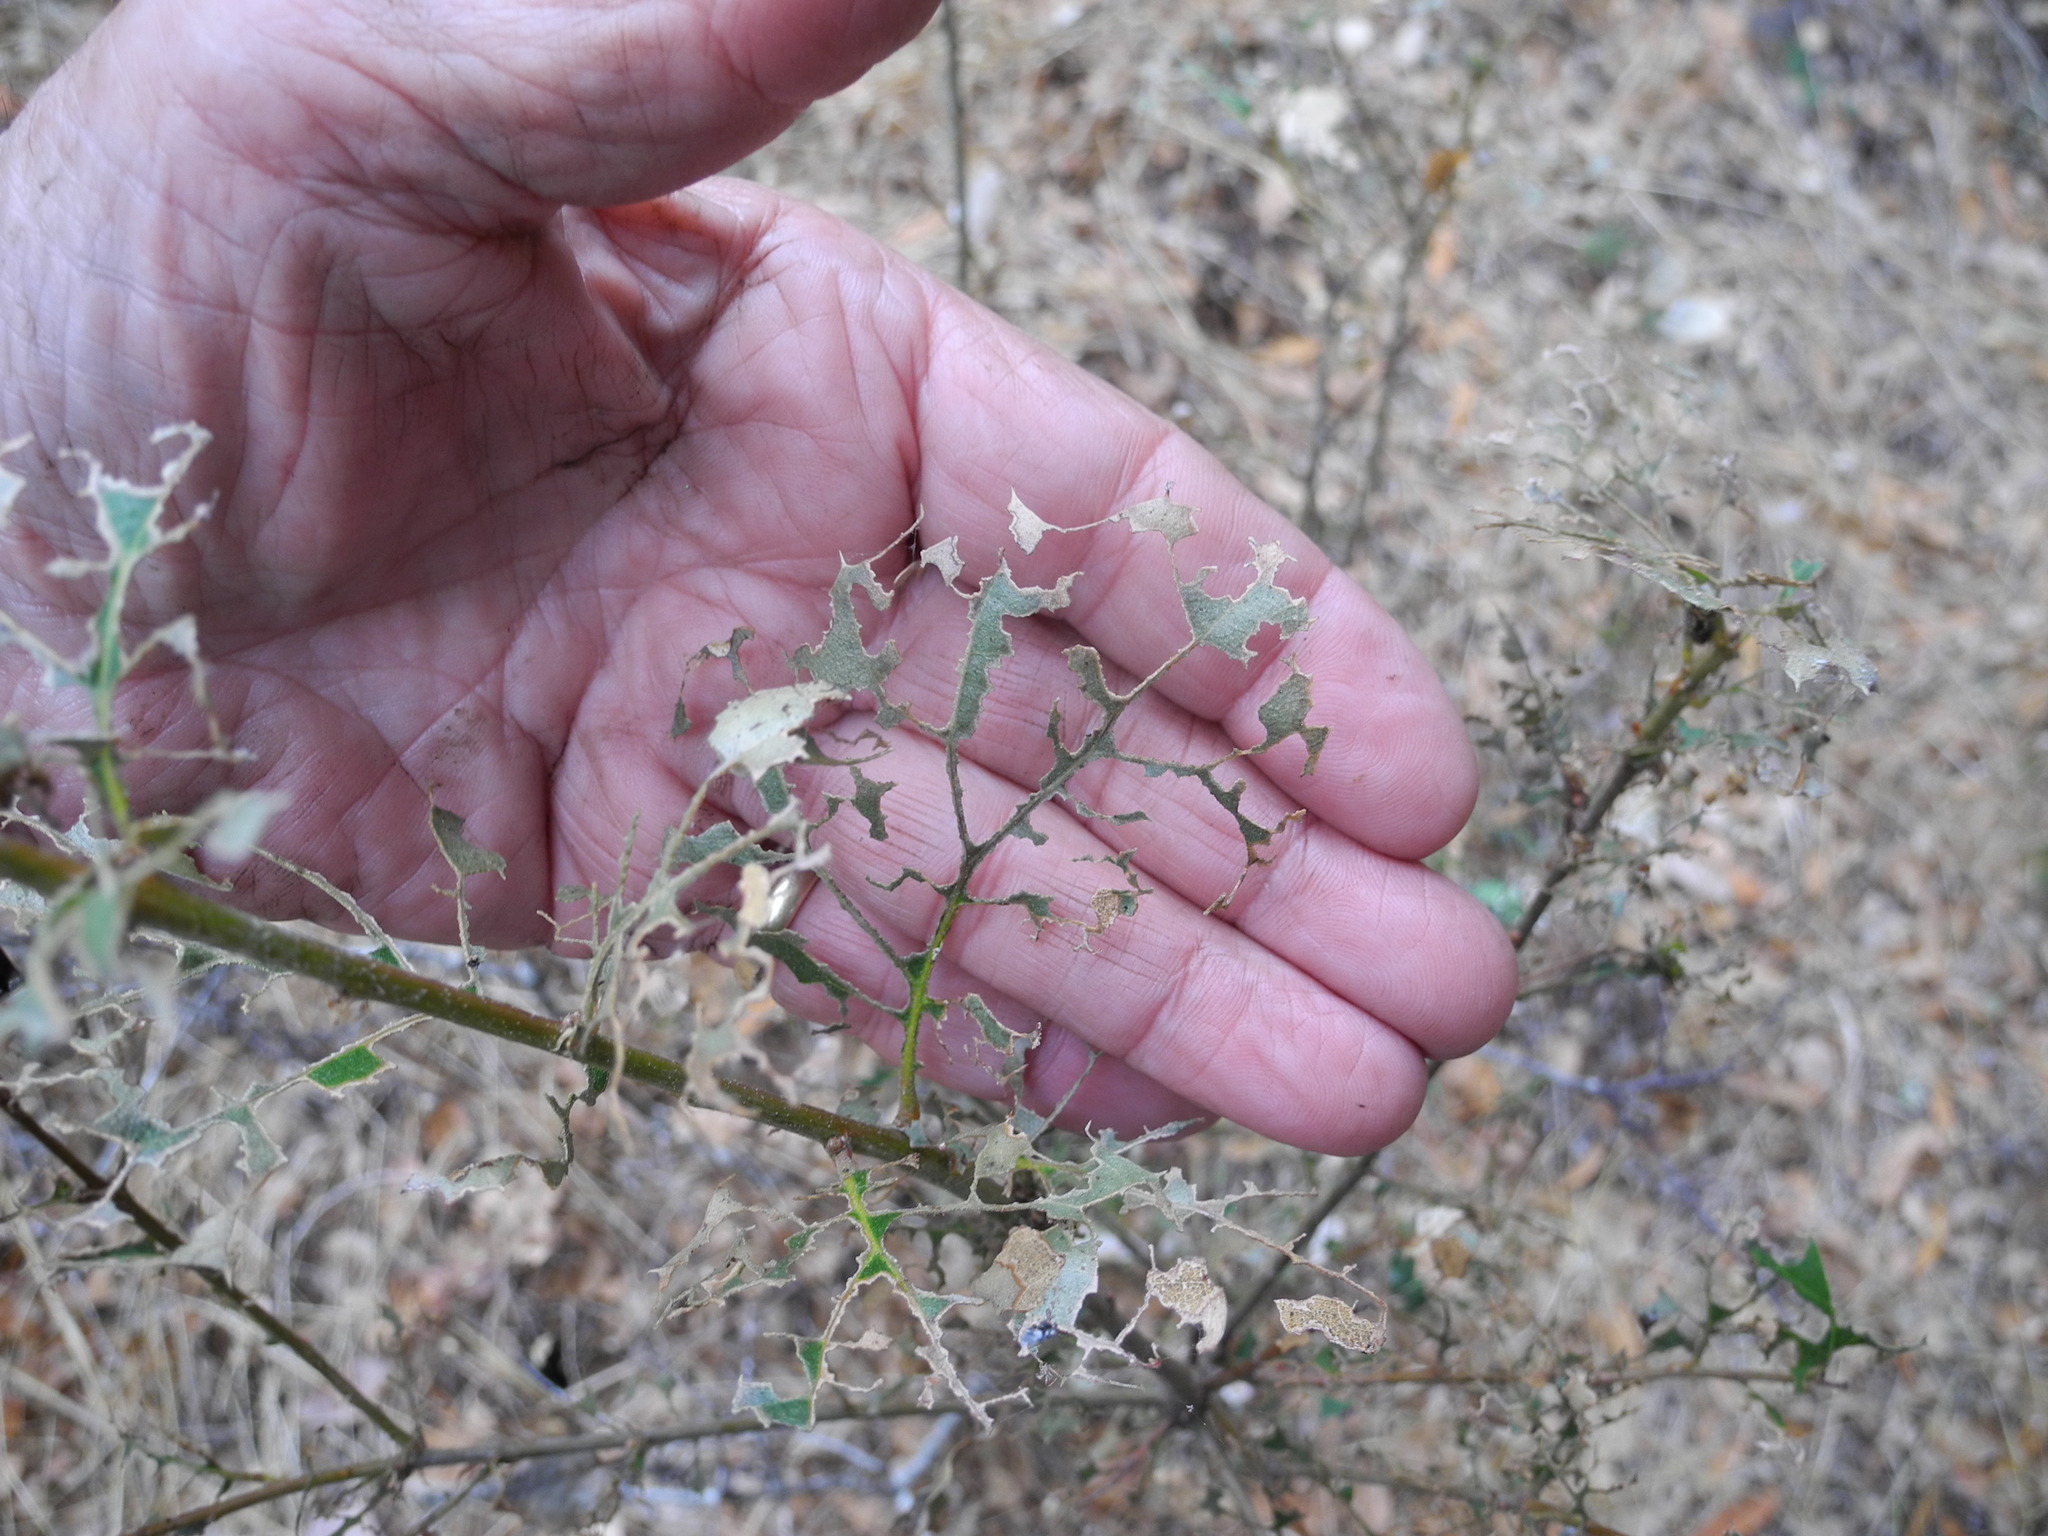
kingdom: Animalia
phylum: Arthropoda
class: Insecta
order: Lepidoptera
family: Notodontidae
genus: Phryganidia
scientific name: Phryganidia californica
